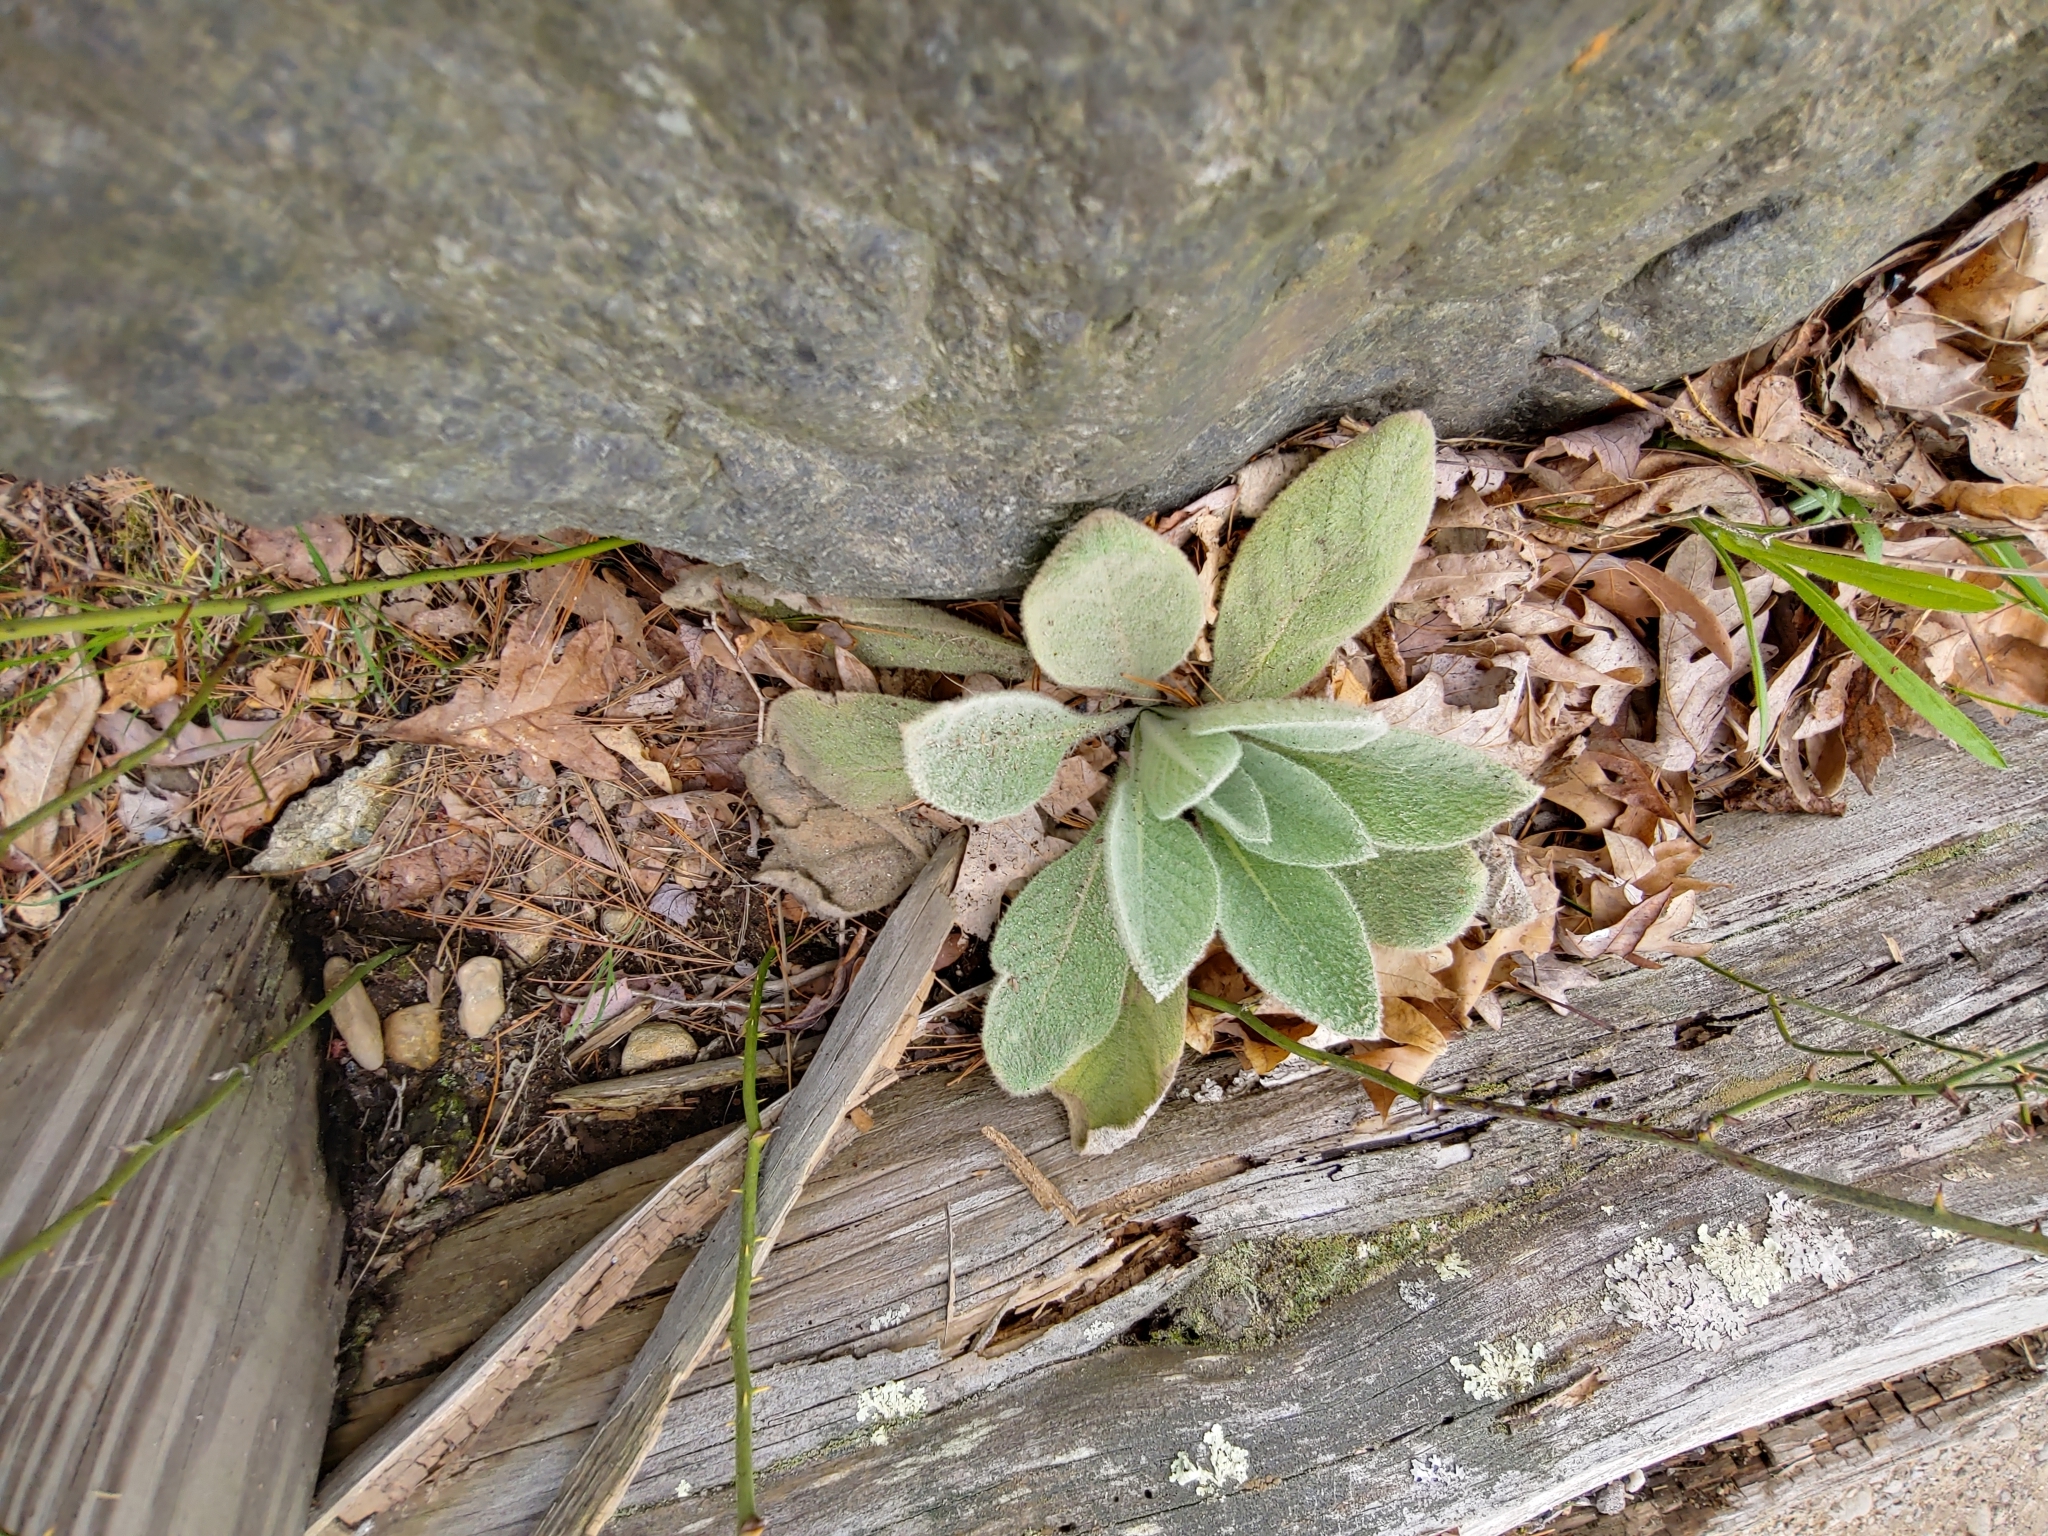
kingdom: Plantae
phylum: Tracheophyta
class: Magnoliopsida
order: Lamiales
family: Scrophulariaceae
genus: Verbascum
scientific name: Verbascum thapsus
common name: Common mullein
